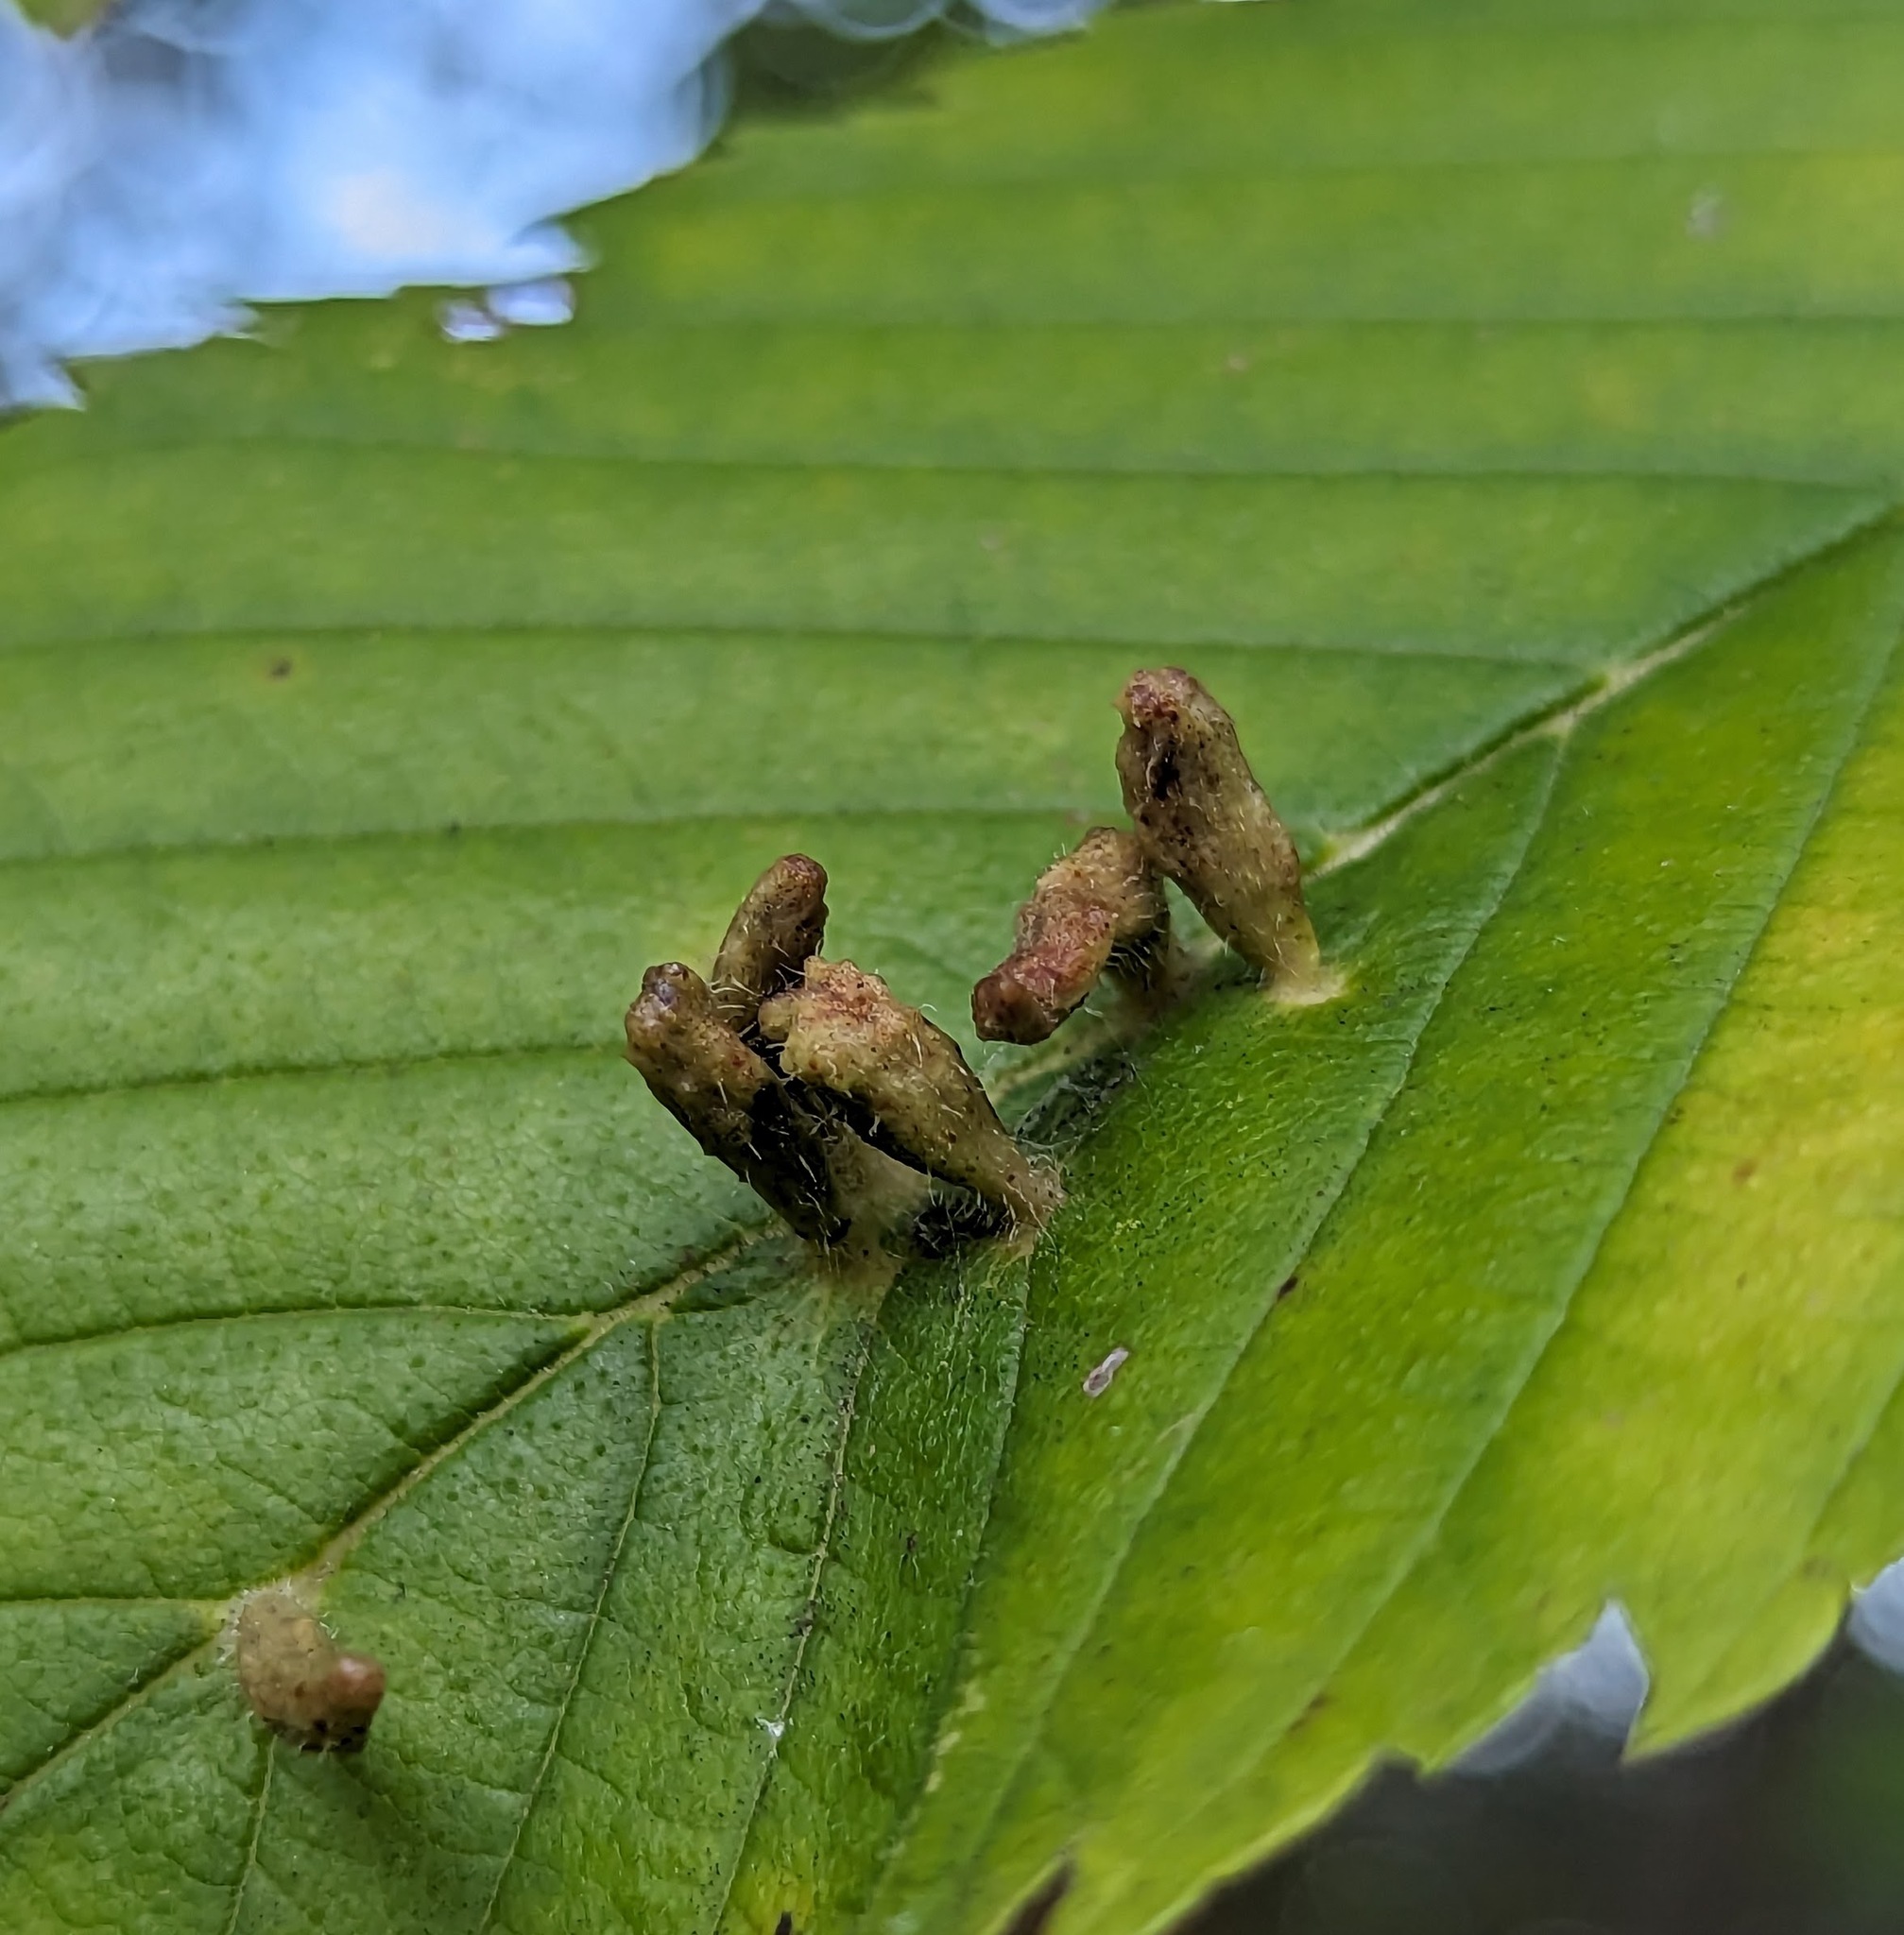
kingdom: Animalia
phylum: Arthropoda
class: Arachnida
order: Trombidiformes
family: Eriophyidae
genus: Aceria
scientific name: Aceria
